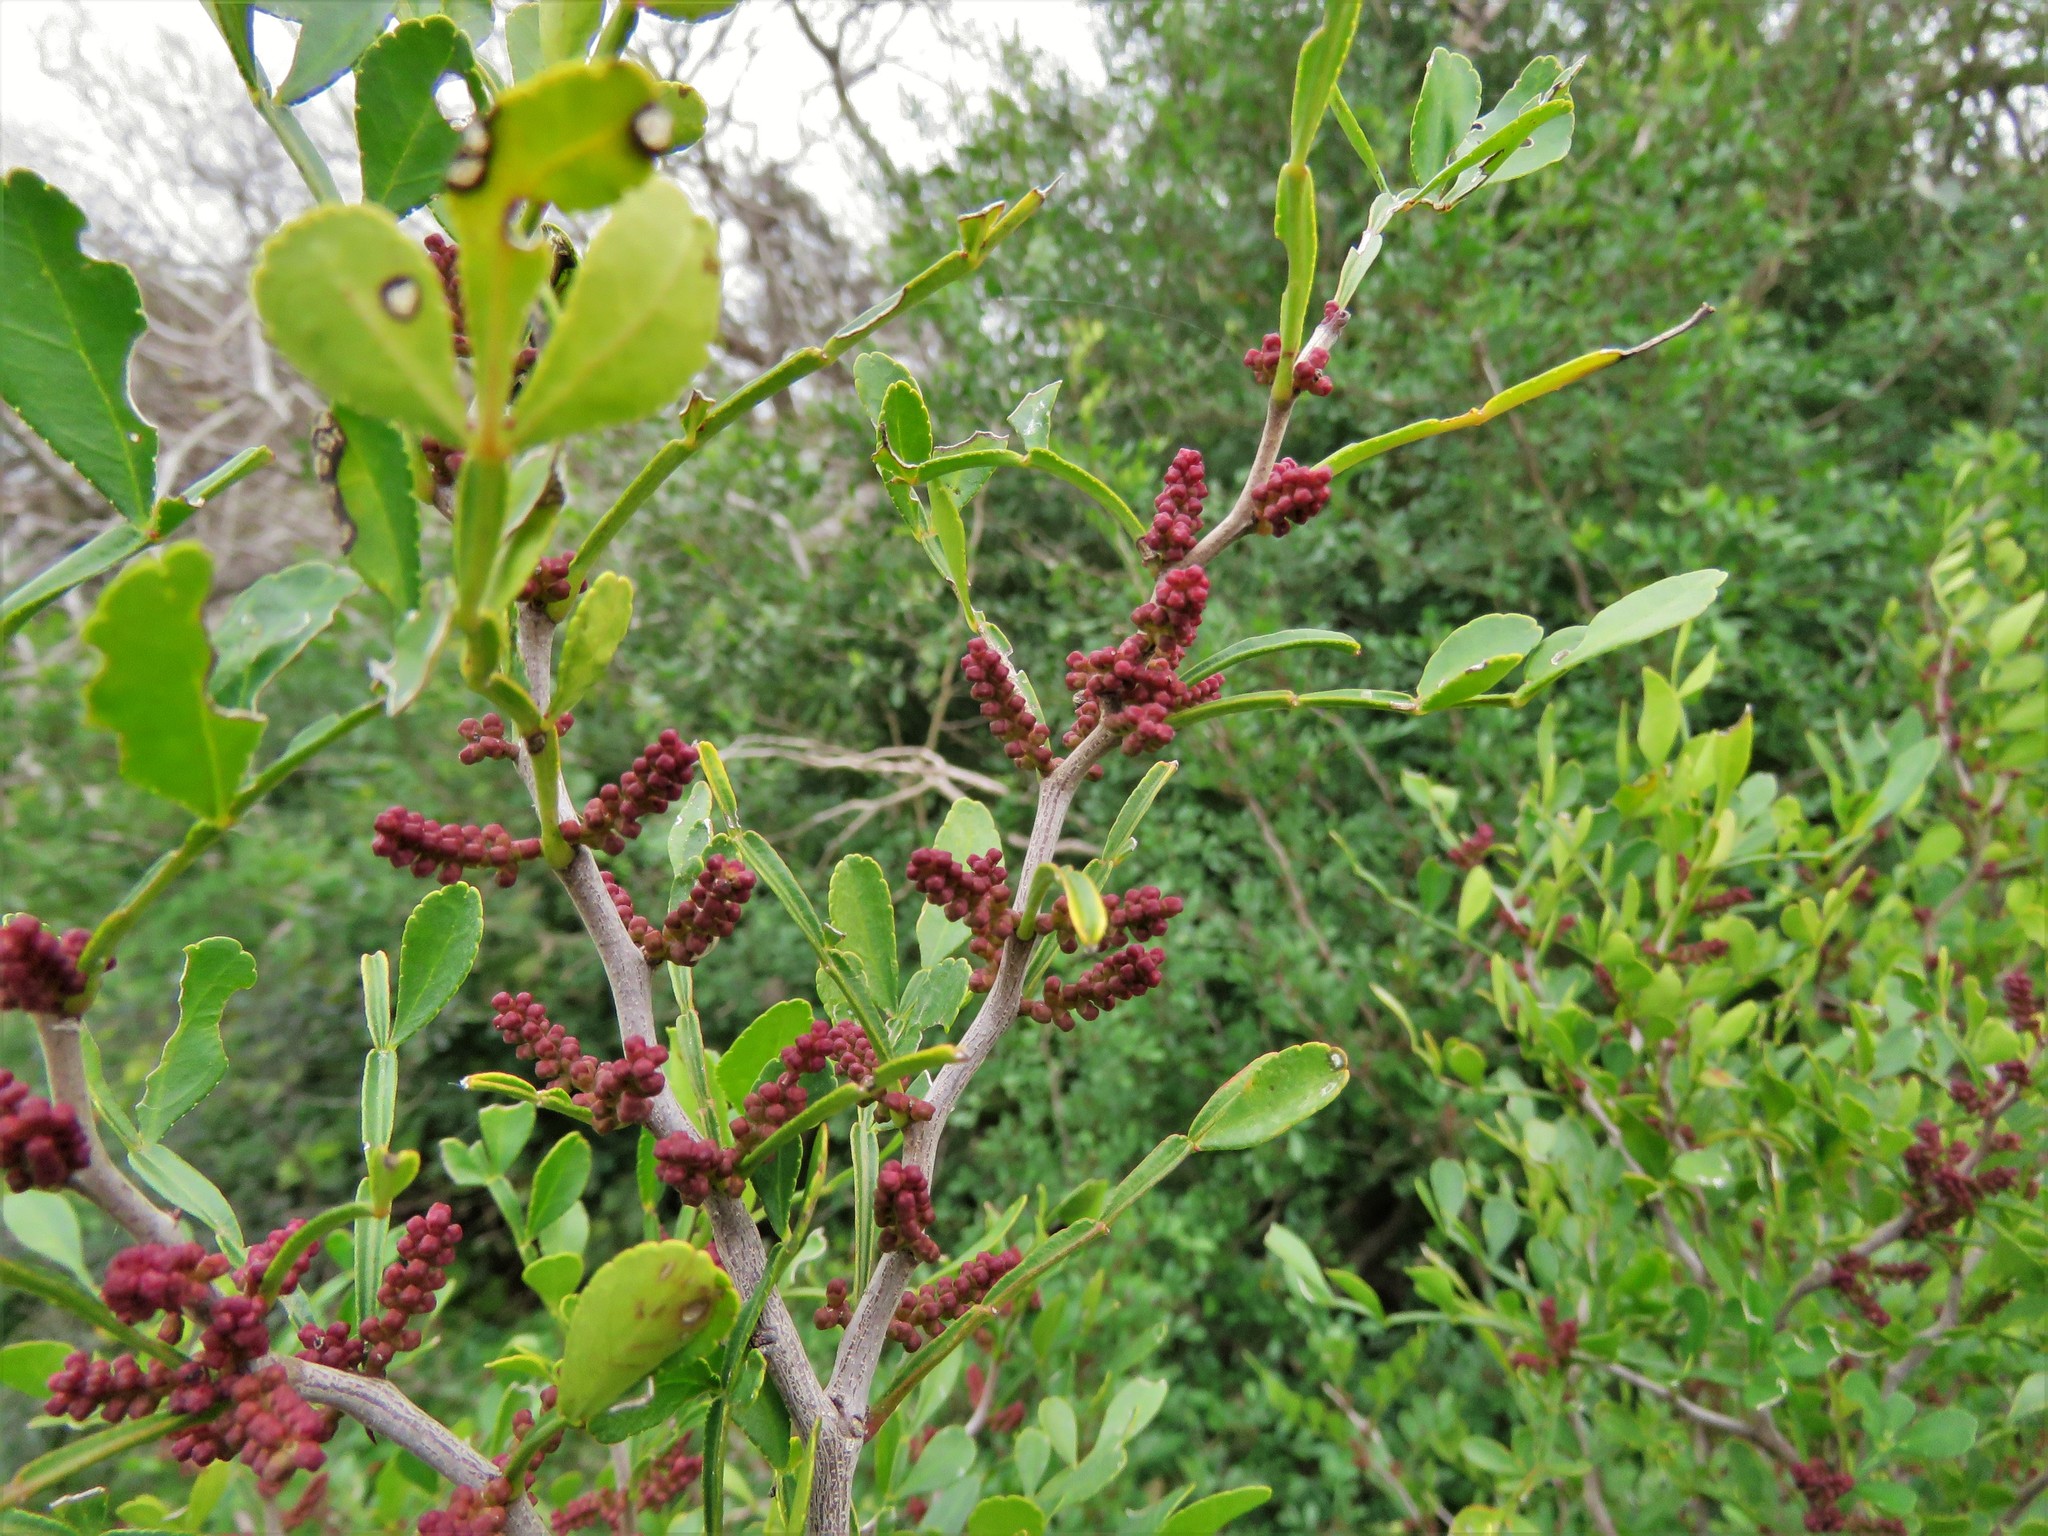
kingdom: Plantae
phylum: Tracheophyta
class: Magnoliopsida
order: Sapindales
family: Rutaceae
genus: Zanthoxylum
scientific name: Zanthoxylum fagara
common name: Lime prickly-ash
